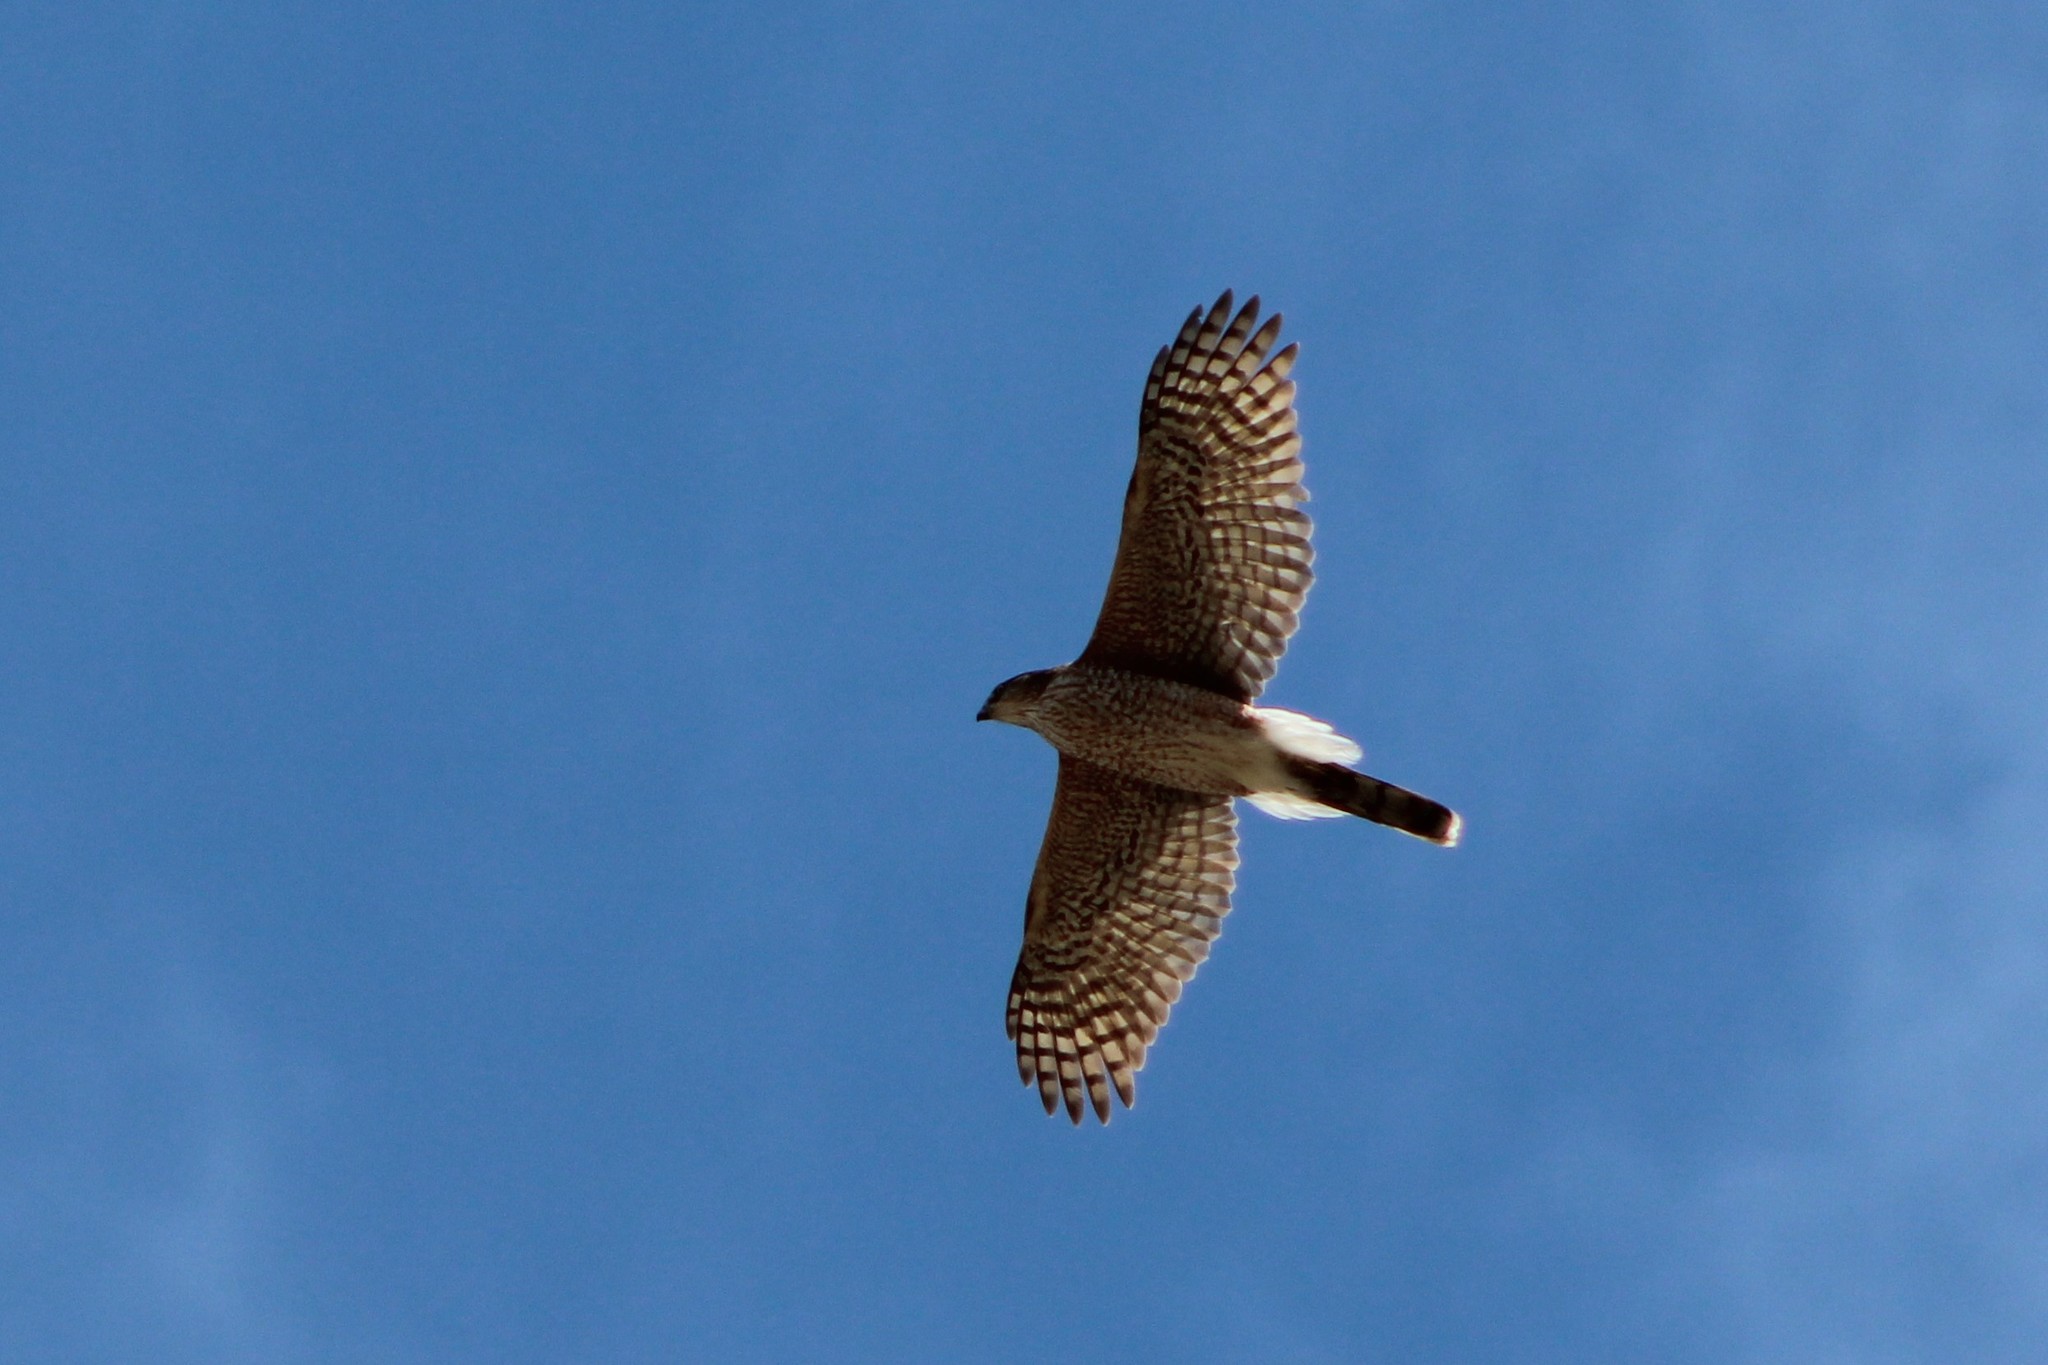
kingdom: Animalia
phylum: Chordata
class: Aves
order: Accipitriformes
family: Accipitridae
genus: Accipiter
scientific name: Accipiter cooperii
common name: Cooper's hawk
